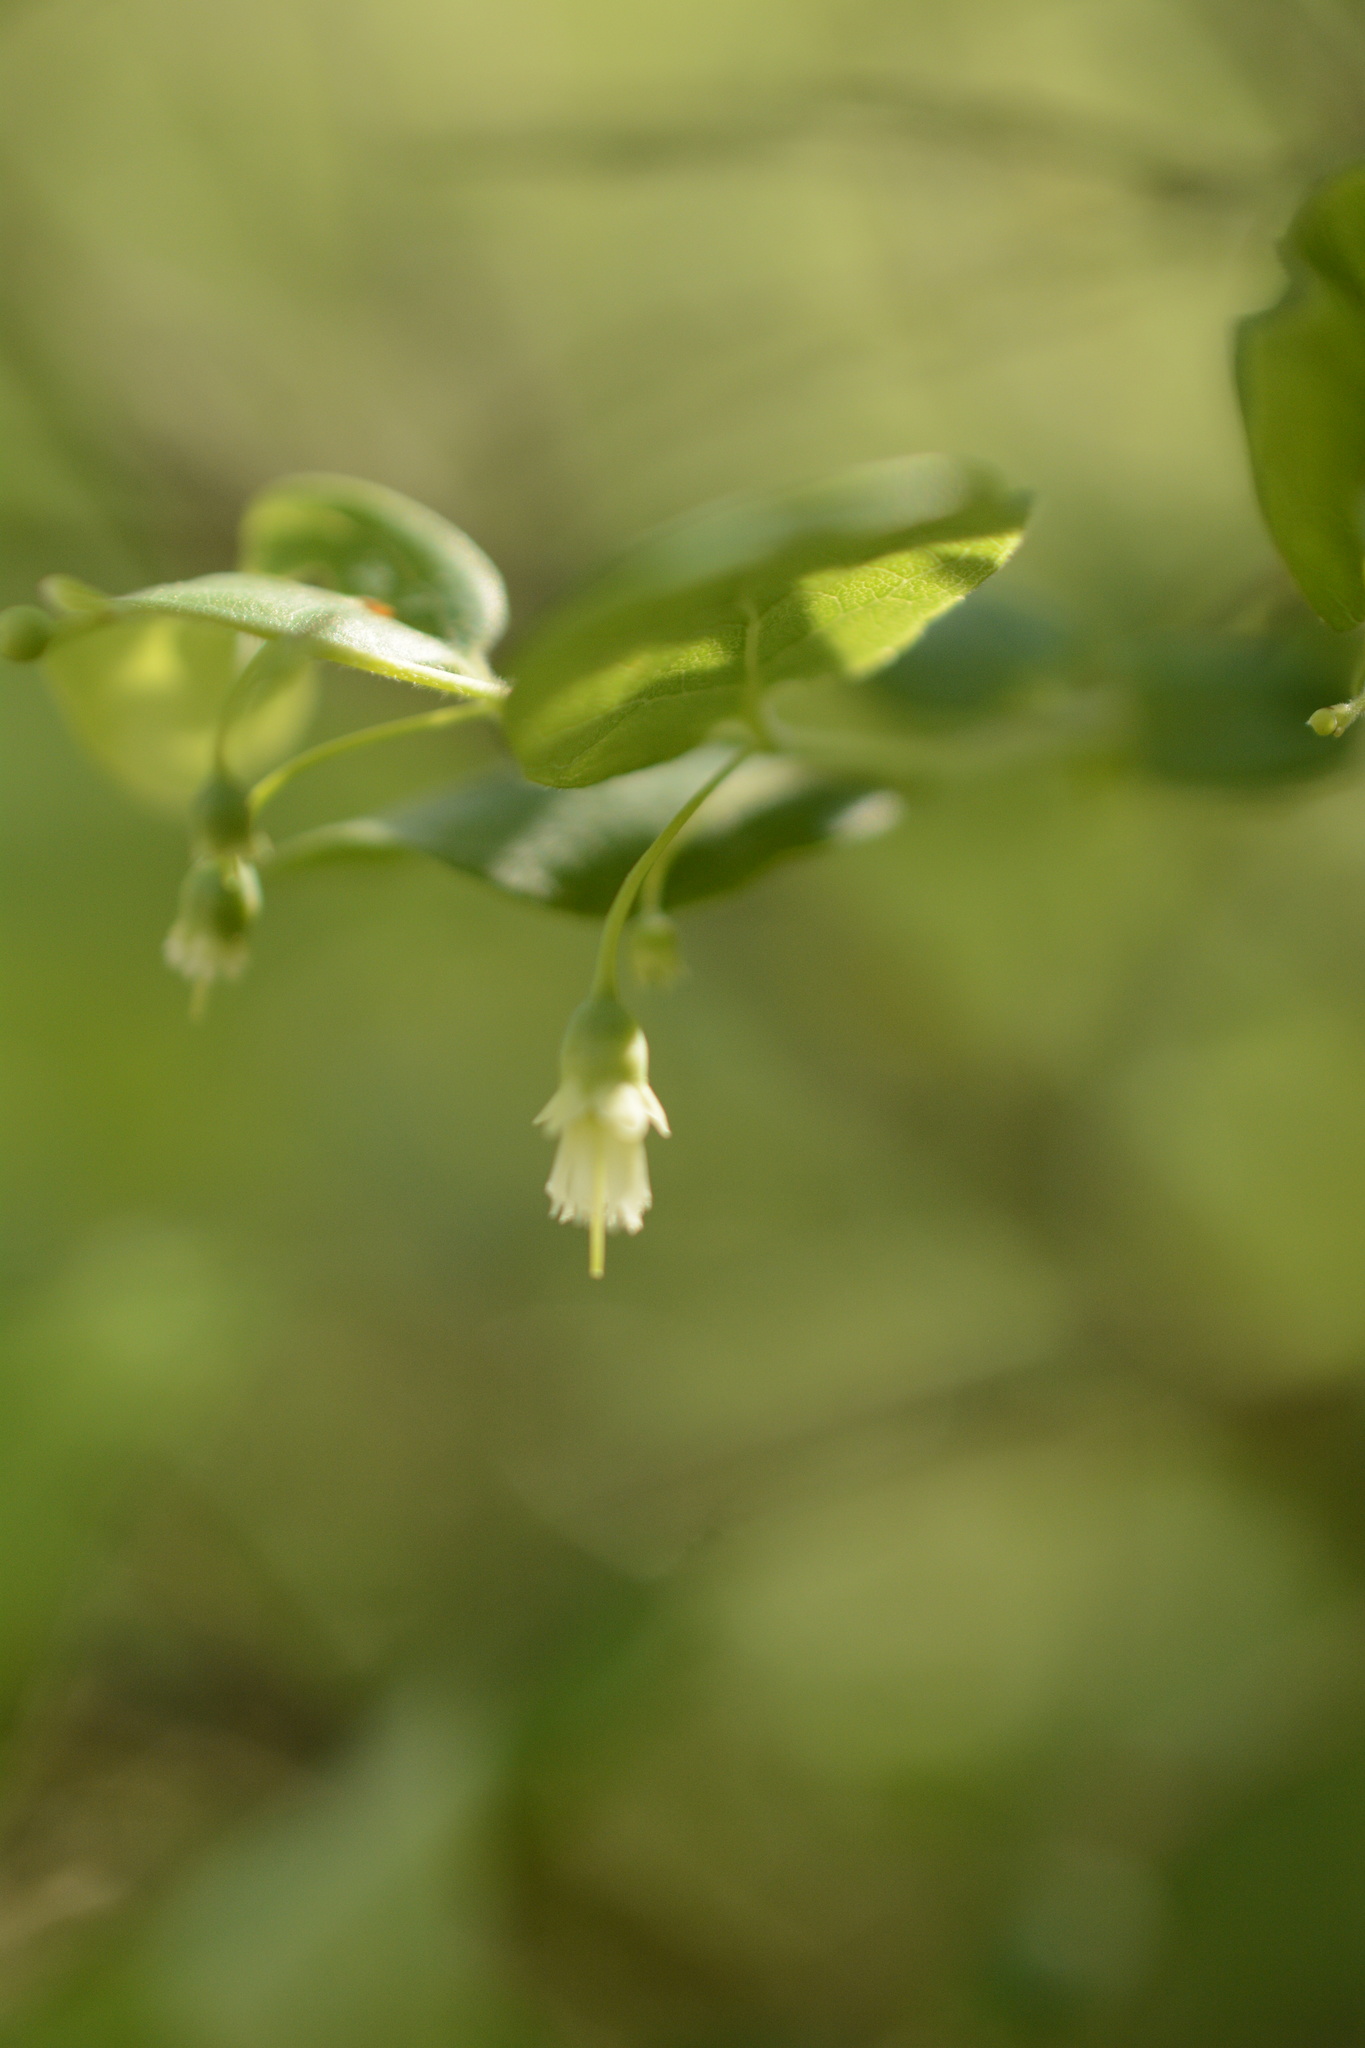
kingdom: Plantae
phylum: Tracheophyta
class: Magnoliopsida
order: Ericales
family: Ericaceae
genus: Vaccinium
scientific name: Vaccinium stamineum
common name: Deerberry
